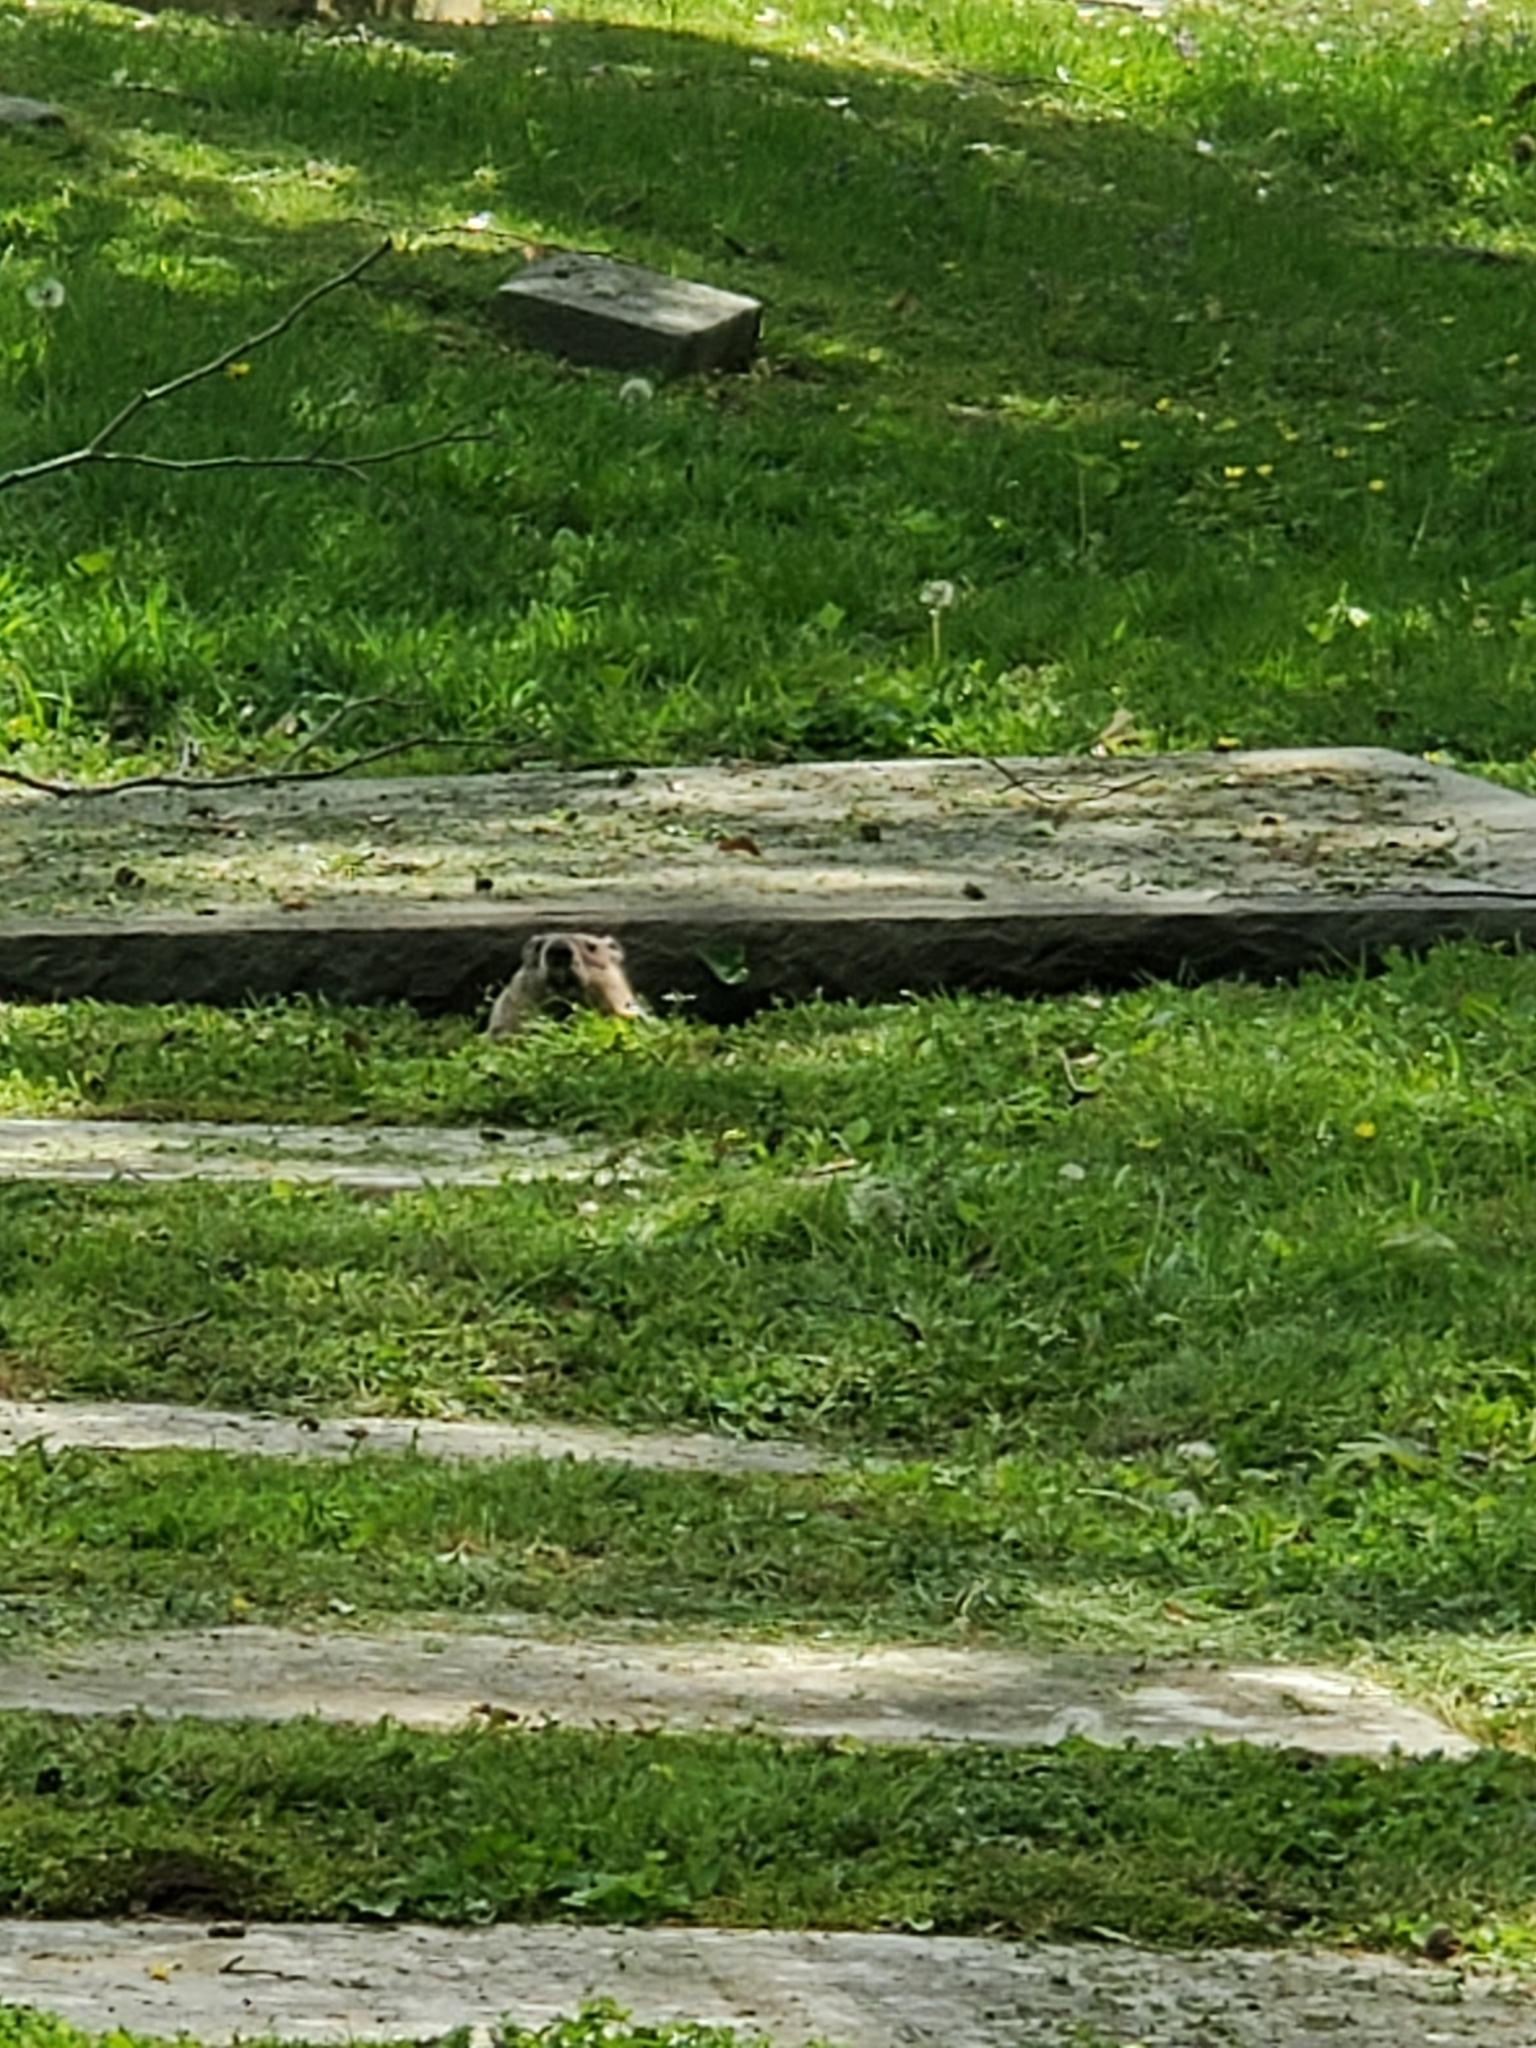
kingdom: Animalia
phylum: Chordata
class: Mammalia
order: Rodentia
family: Sciuridae
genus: Marmota
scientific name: Marmota monax
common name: Groundhog
